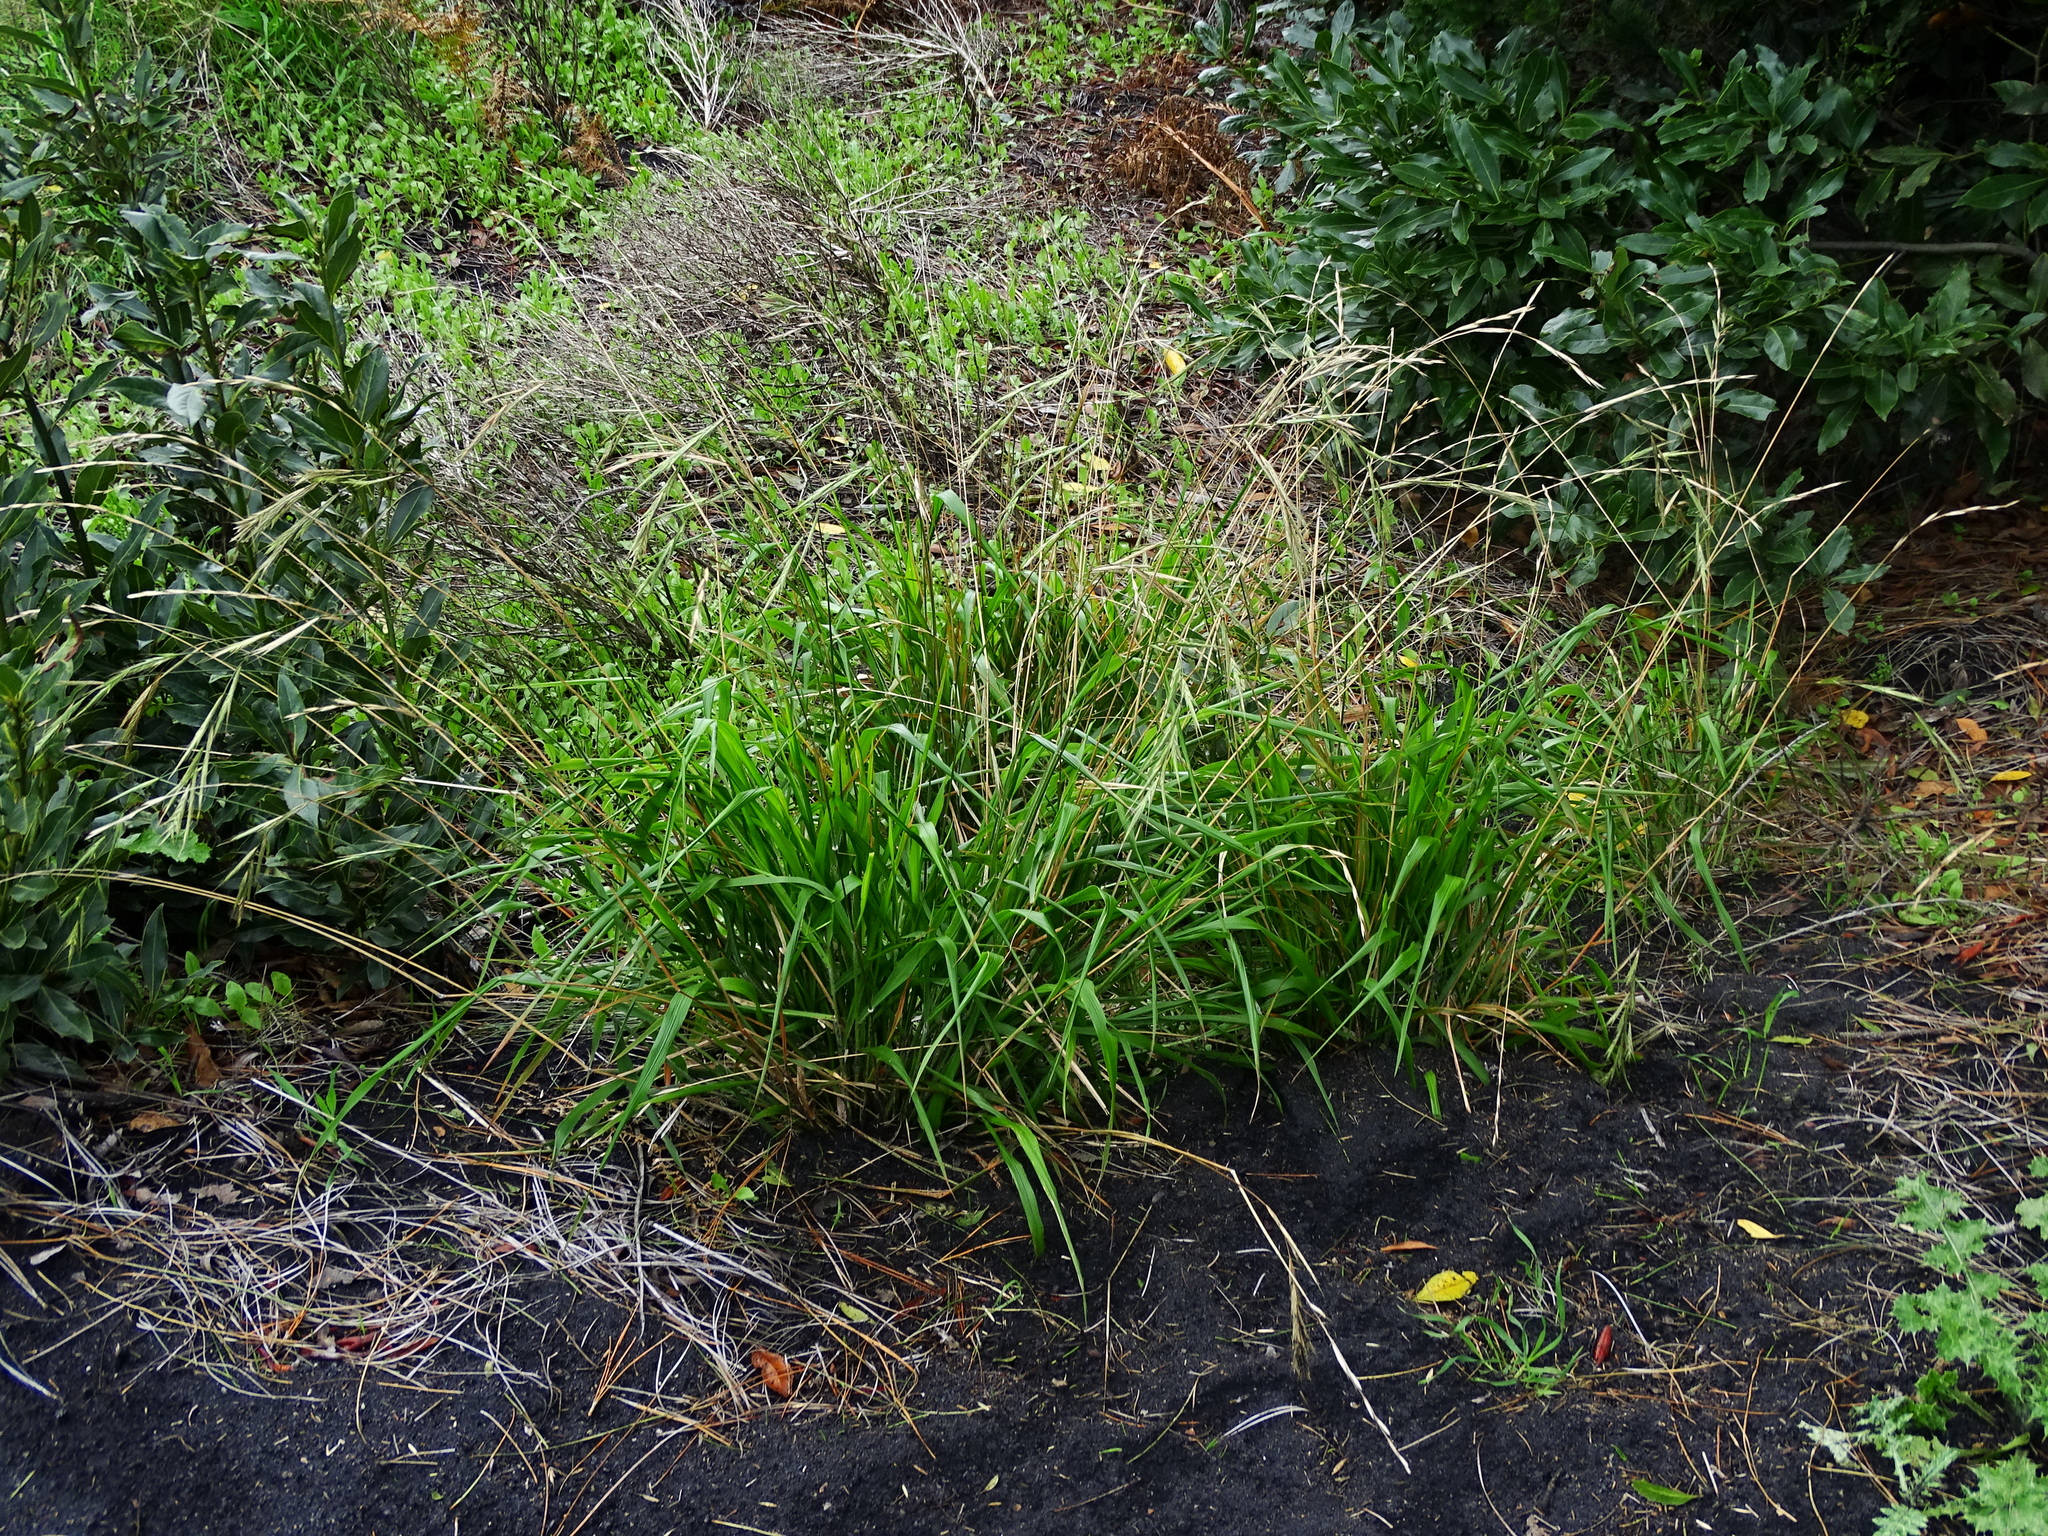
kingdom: Plantae
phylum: Tracheophyta
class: Liliopsida
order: Poales
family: Poaceae
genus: Brachypodium
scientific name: Brachypodium sylvaticum
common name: False-brome
